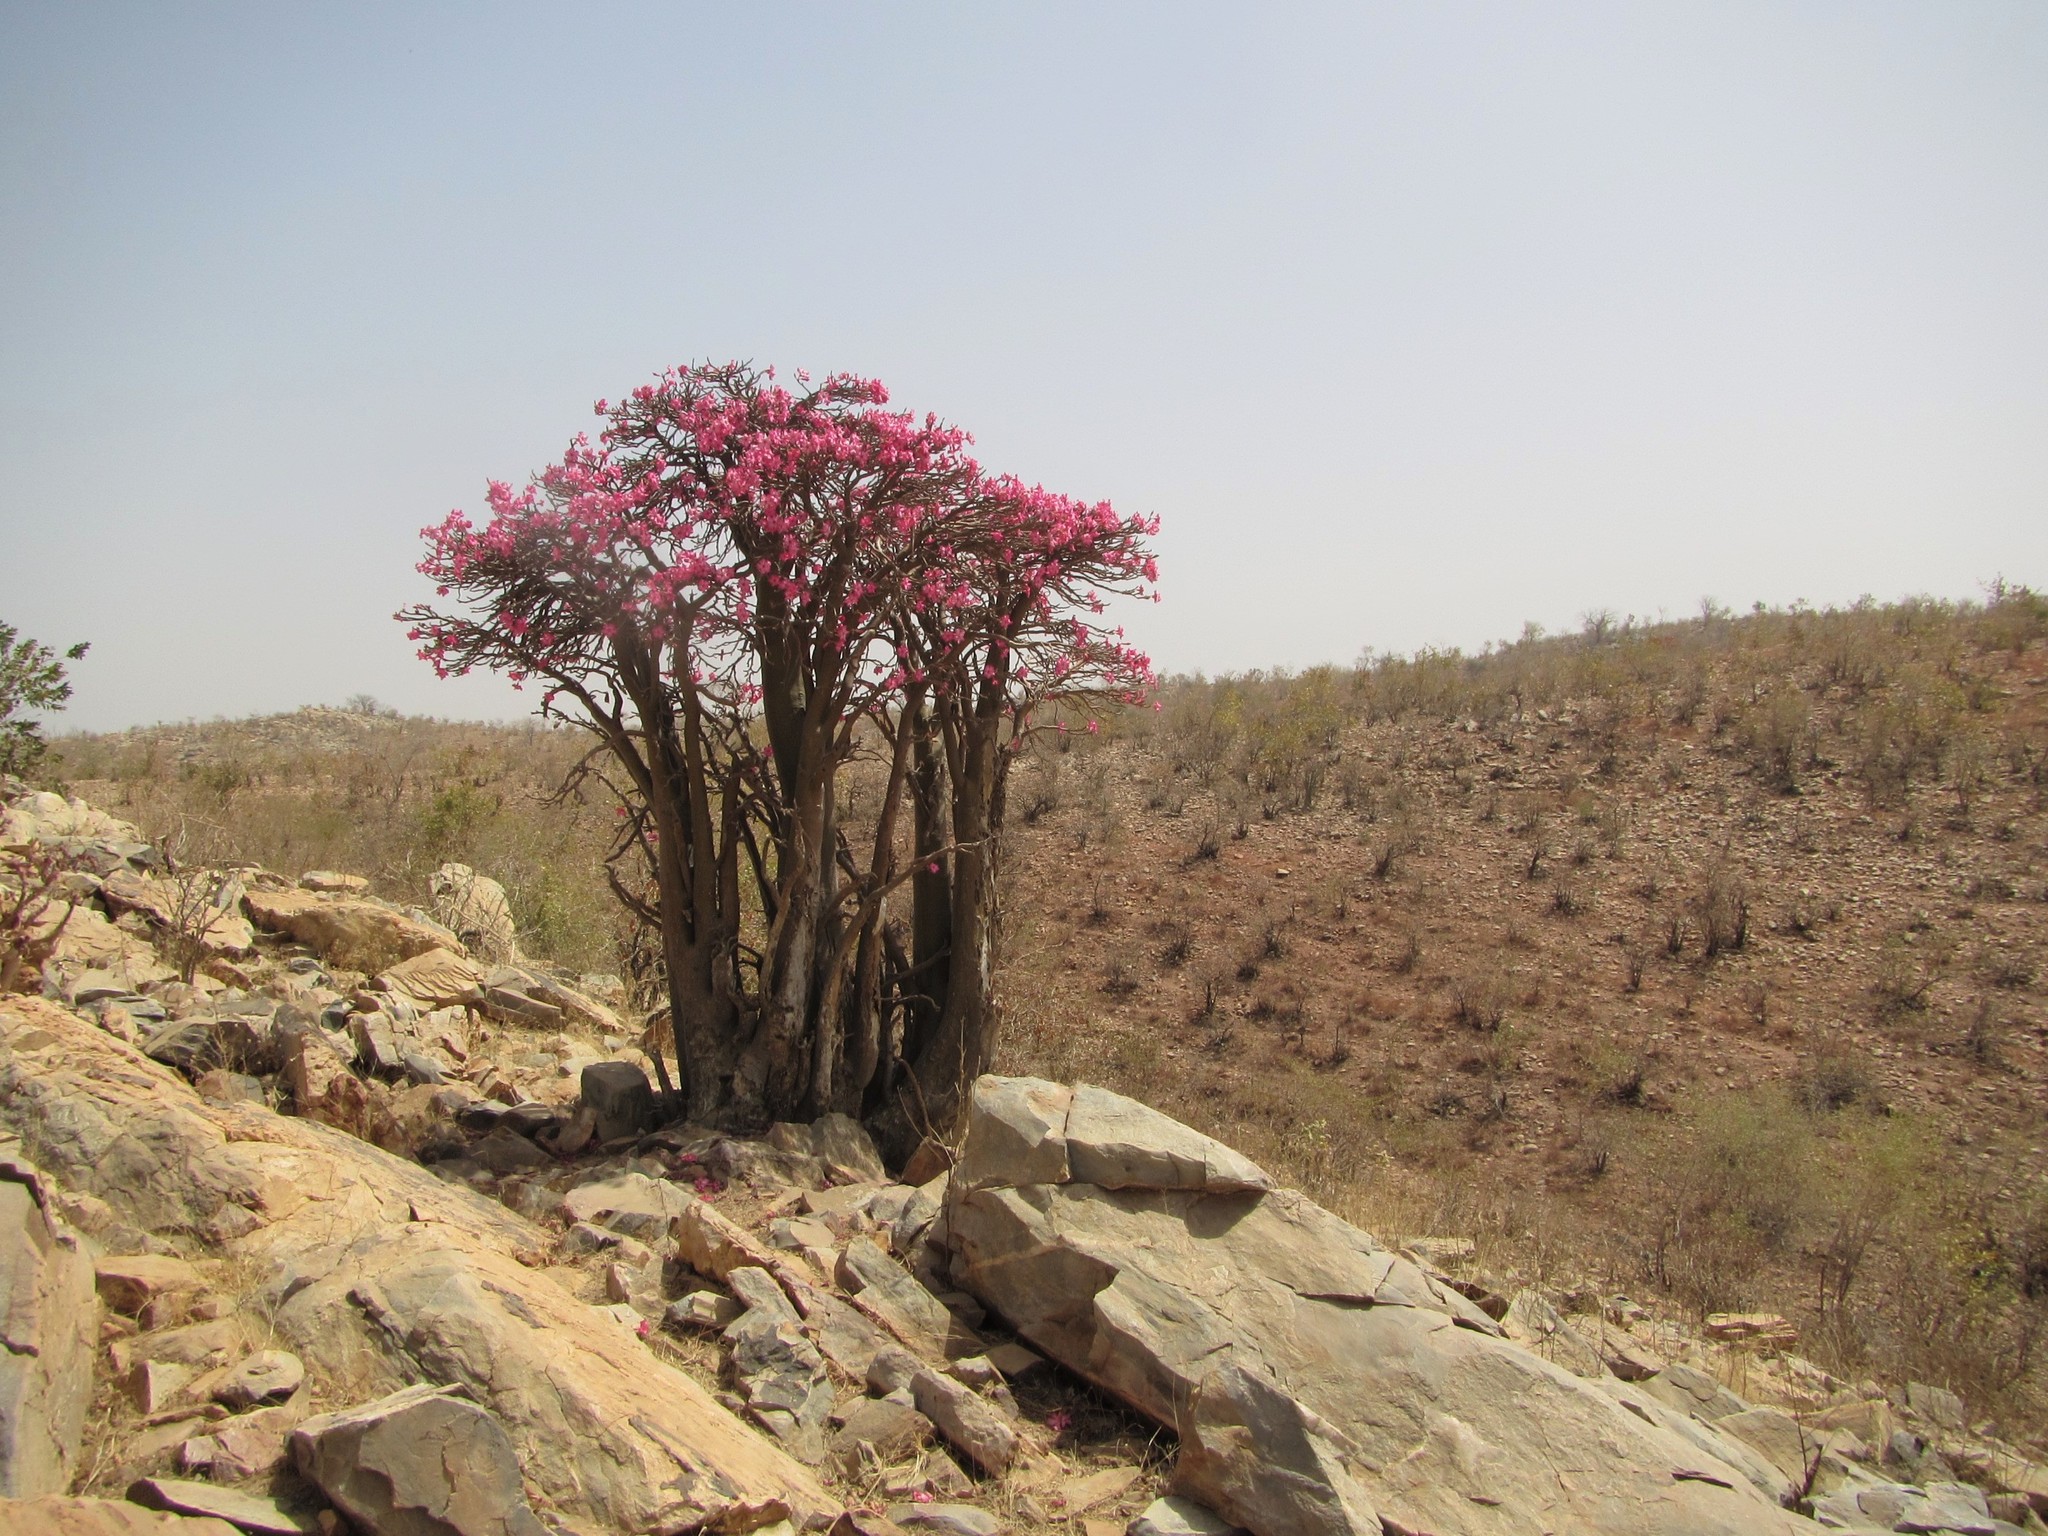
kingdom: Plantae
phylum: Tracheophyta
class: Magnoliopsida
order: Gentianales
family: Apocynaceae
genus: Adenium
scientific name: Adenium obesum
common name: Desert-rose
